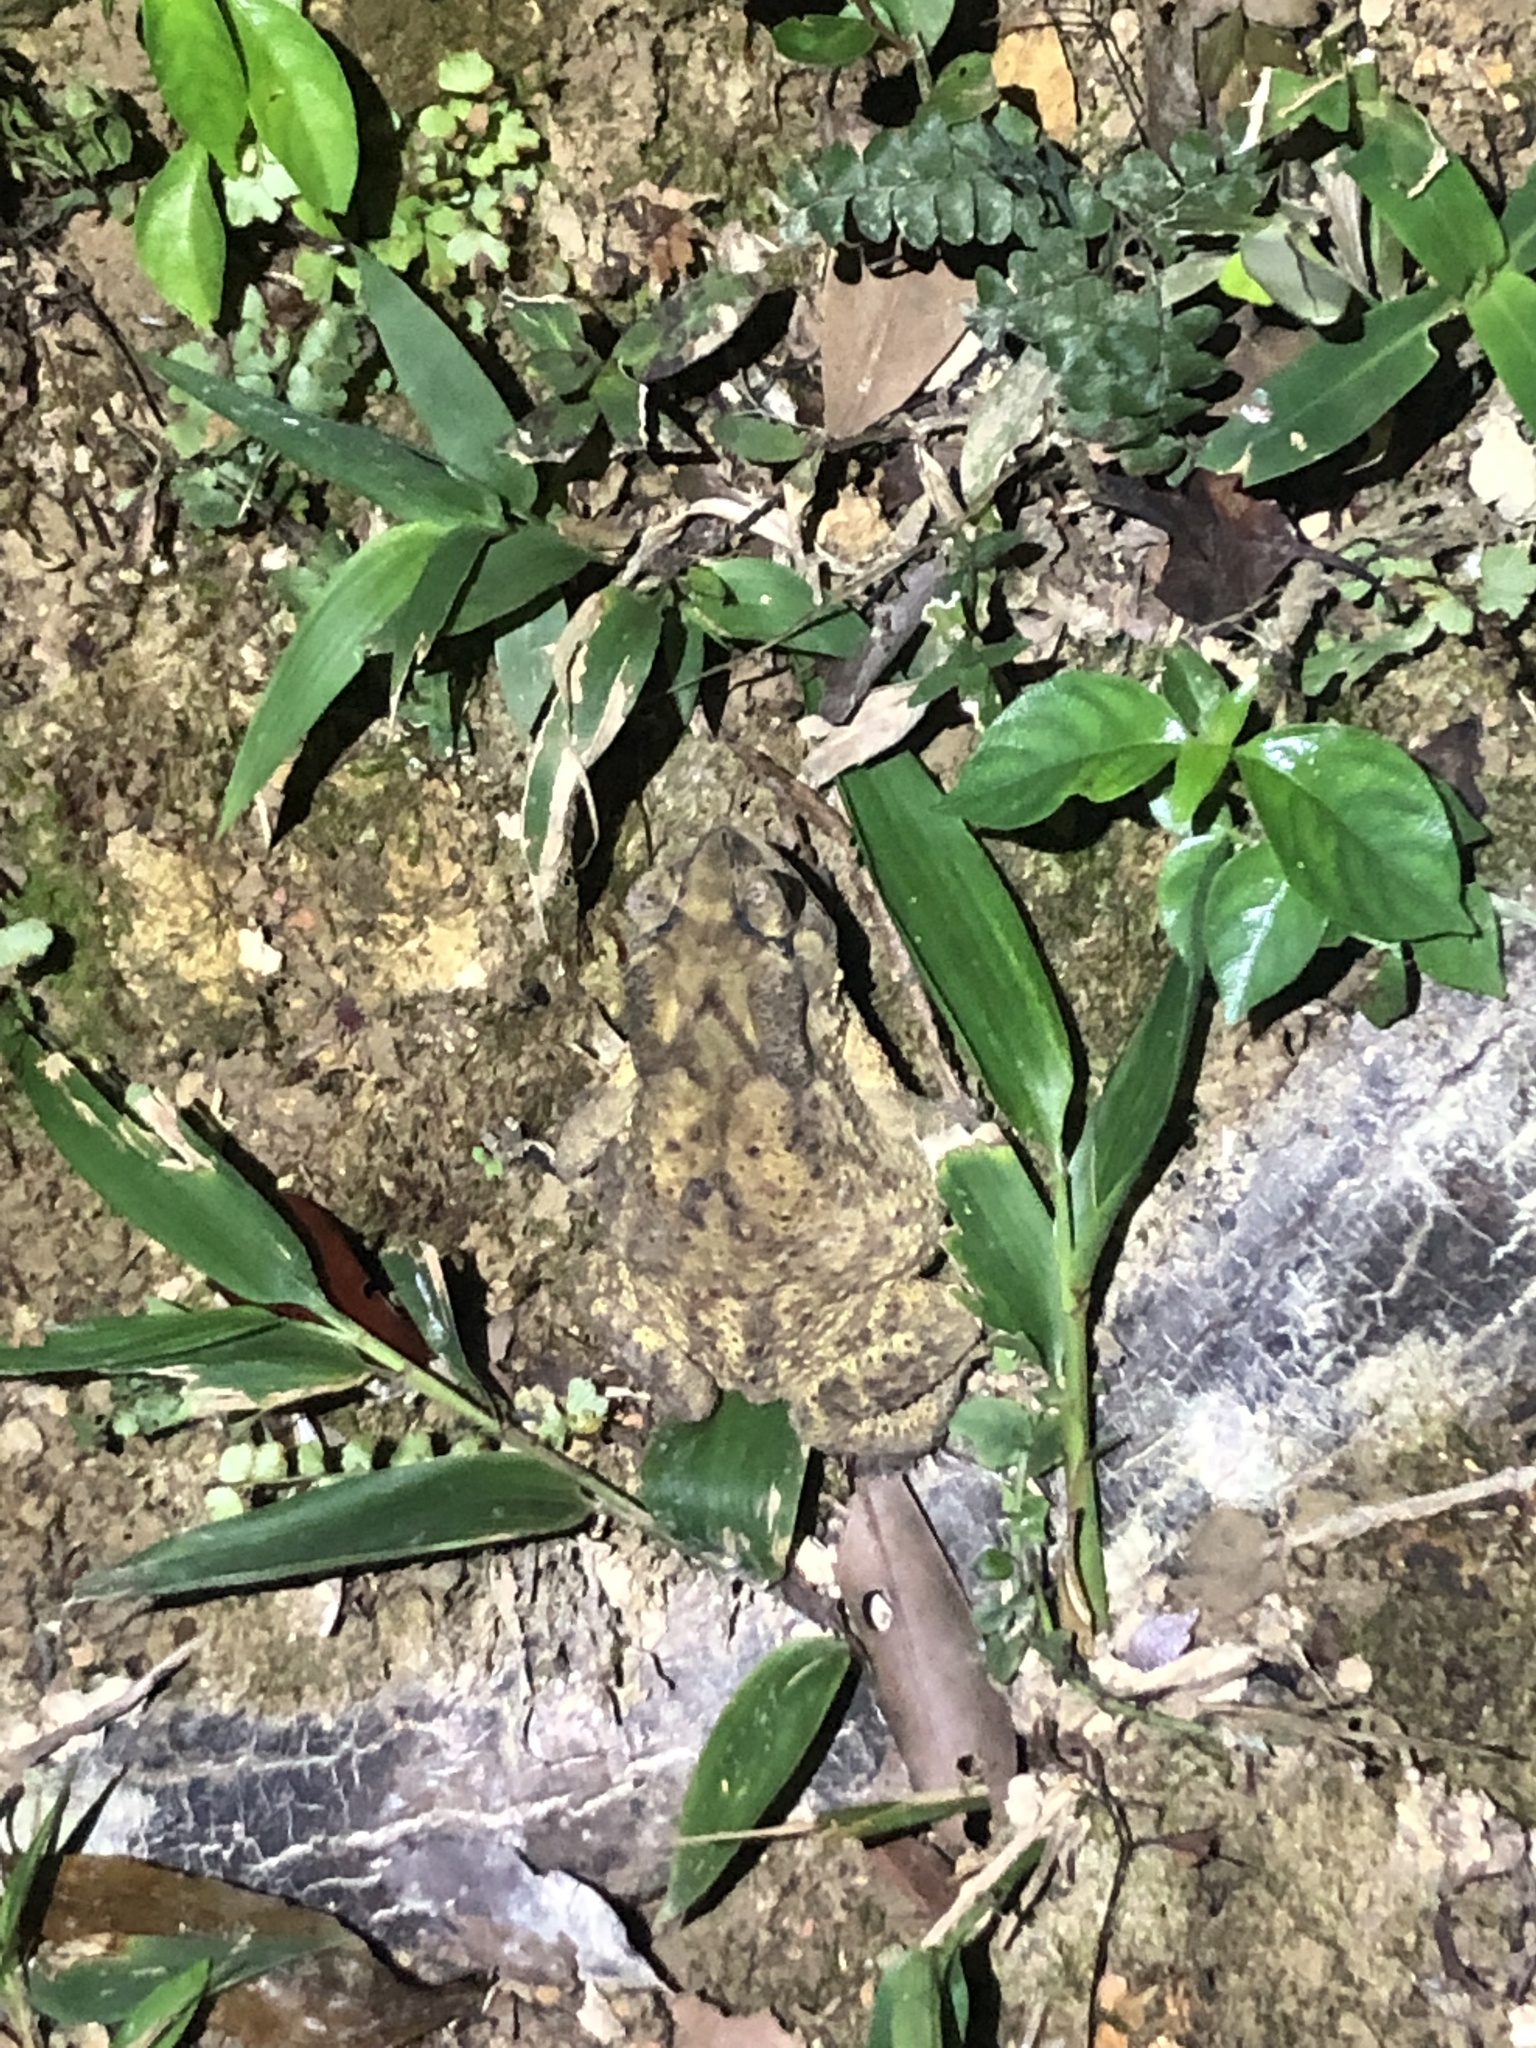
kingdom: Animalia
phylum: Chordata
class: Amphibia
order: Anura
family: Bufonidae
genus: Duttaphrynus
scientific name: Duttaphrynus melanostictus
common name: Common sunda toad
